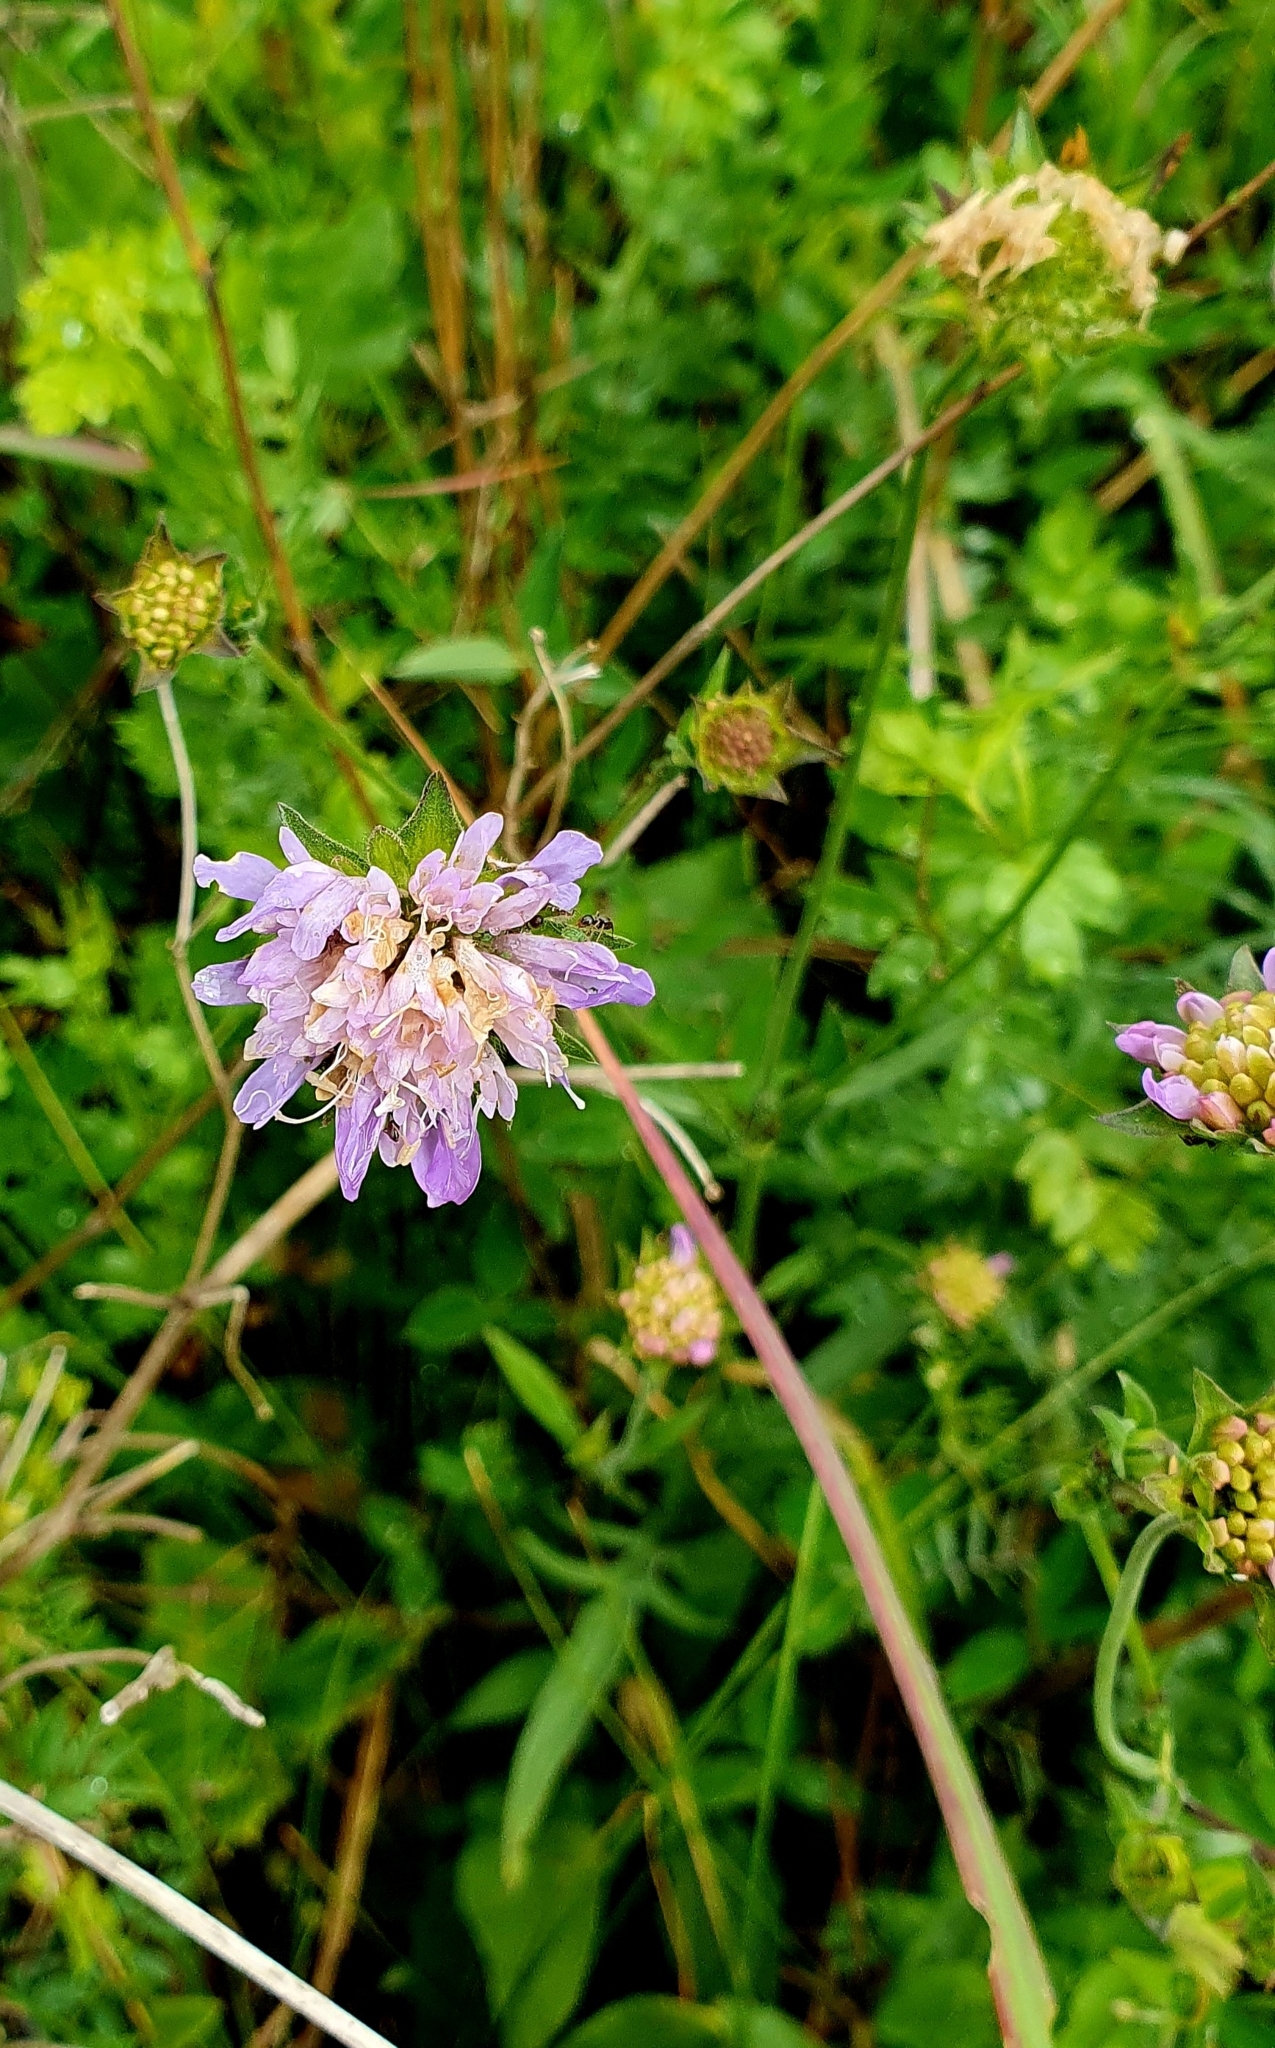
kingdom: Plantae
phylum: Tracheophyta
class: Magnoliopsida
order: Dipsacales
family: Caprifoliaceae
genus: Knautia
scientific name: Knautia arvensis
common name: Field scabiosa
